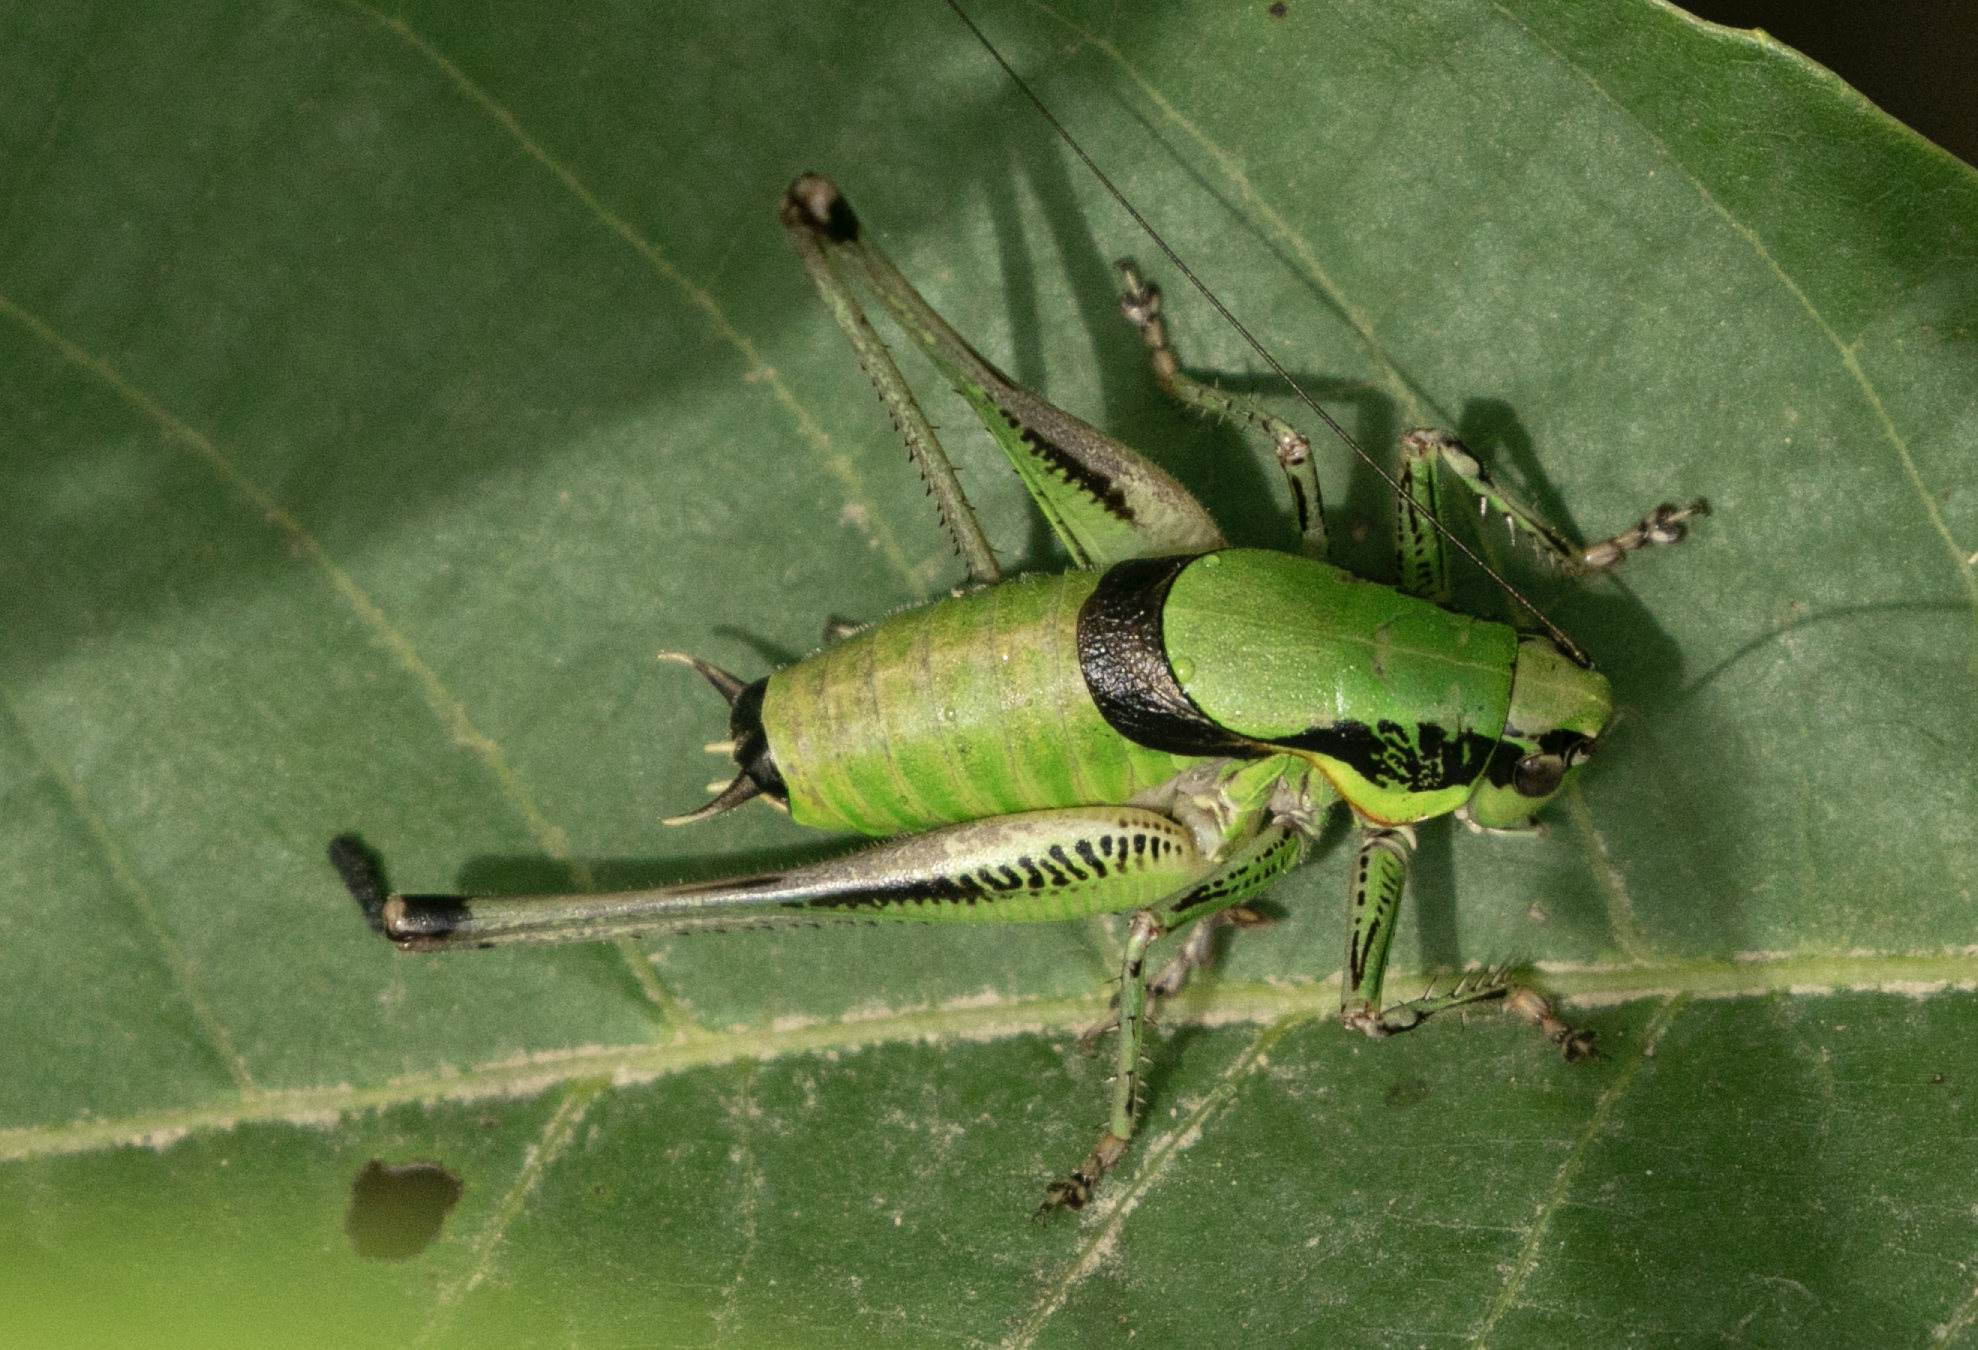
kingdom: Animalia
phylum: Arthropoda
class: Insecta
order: Orthoptera
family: Tettigoniidae
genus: Eupholidoptera
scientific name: Eupholidoptera chabrieri
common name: Chabrier's marbled bush-cricket
